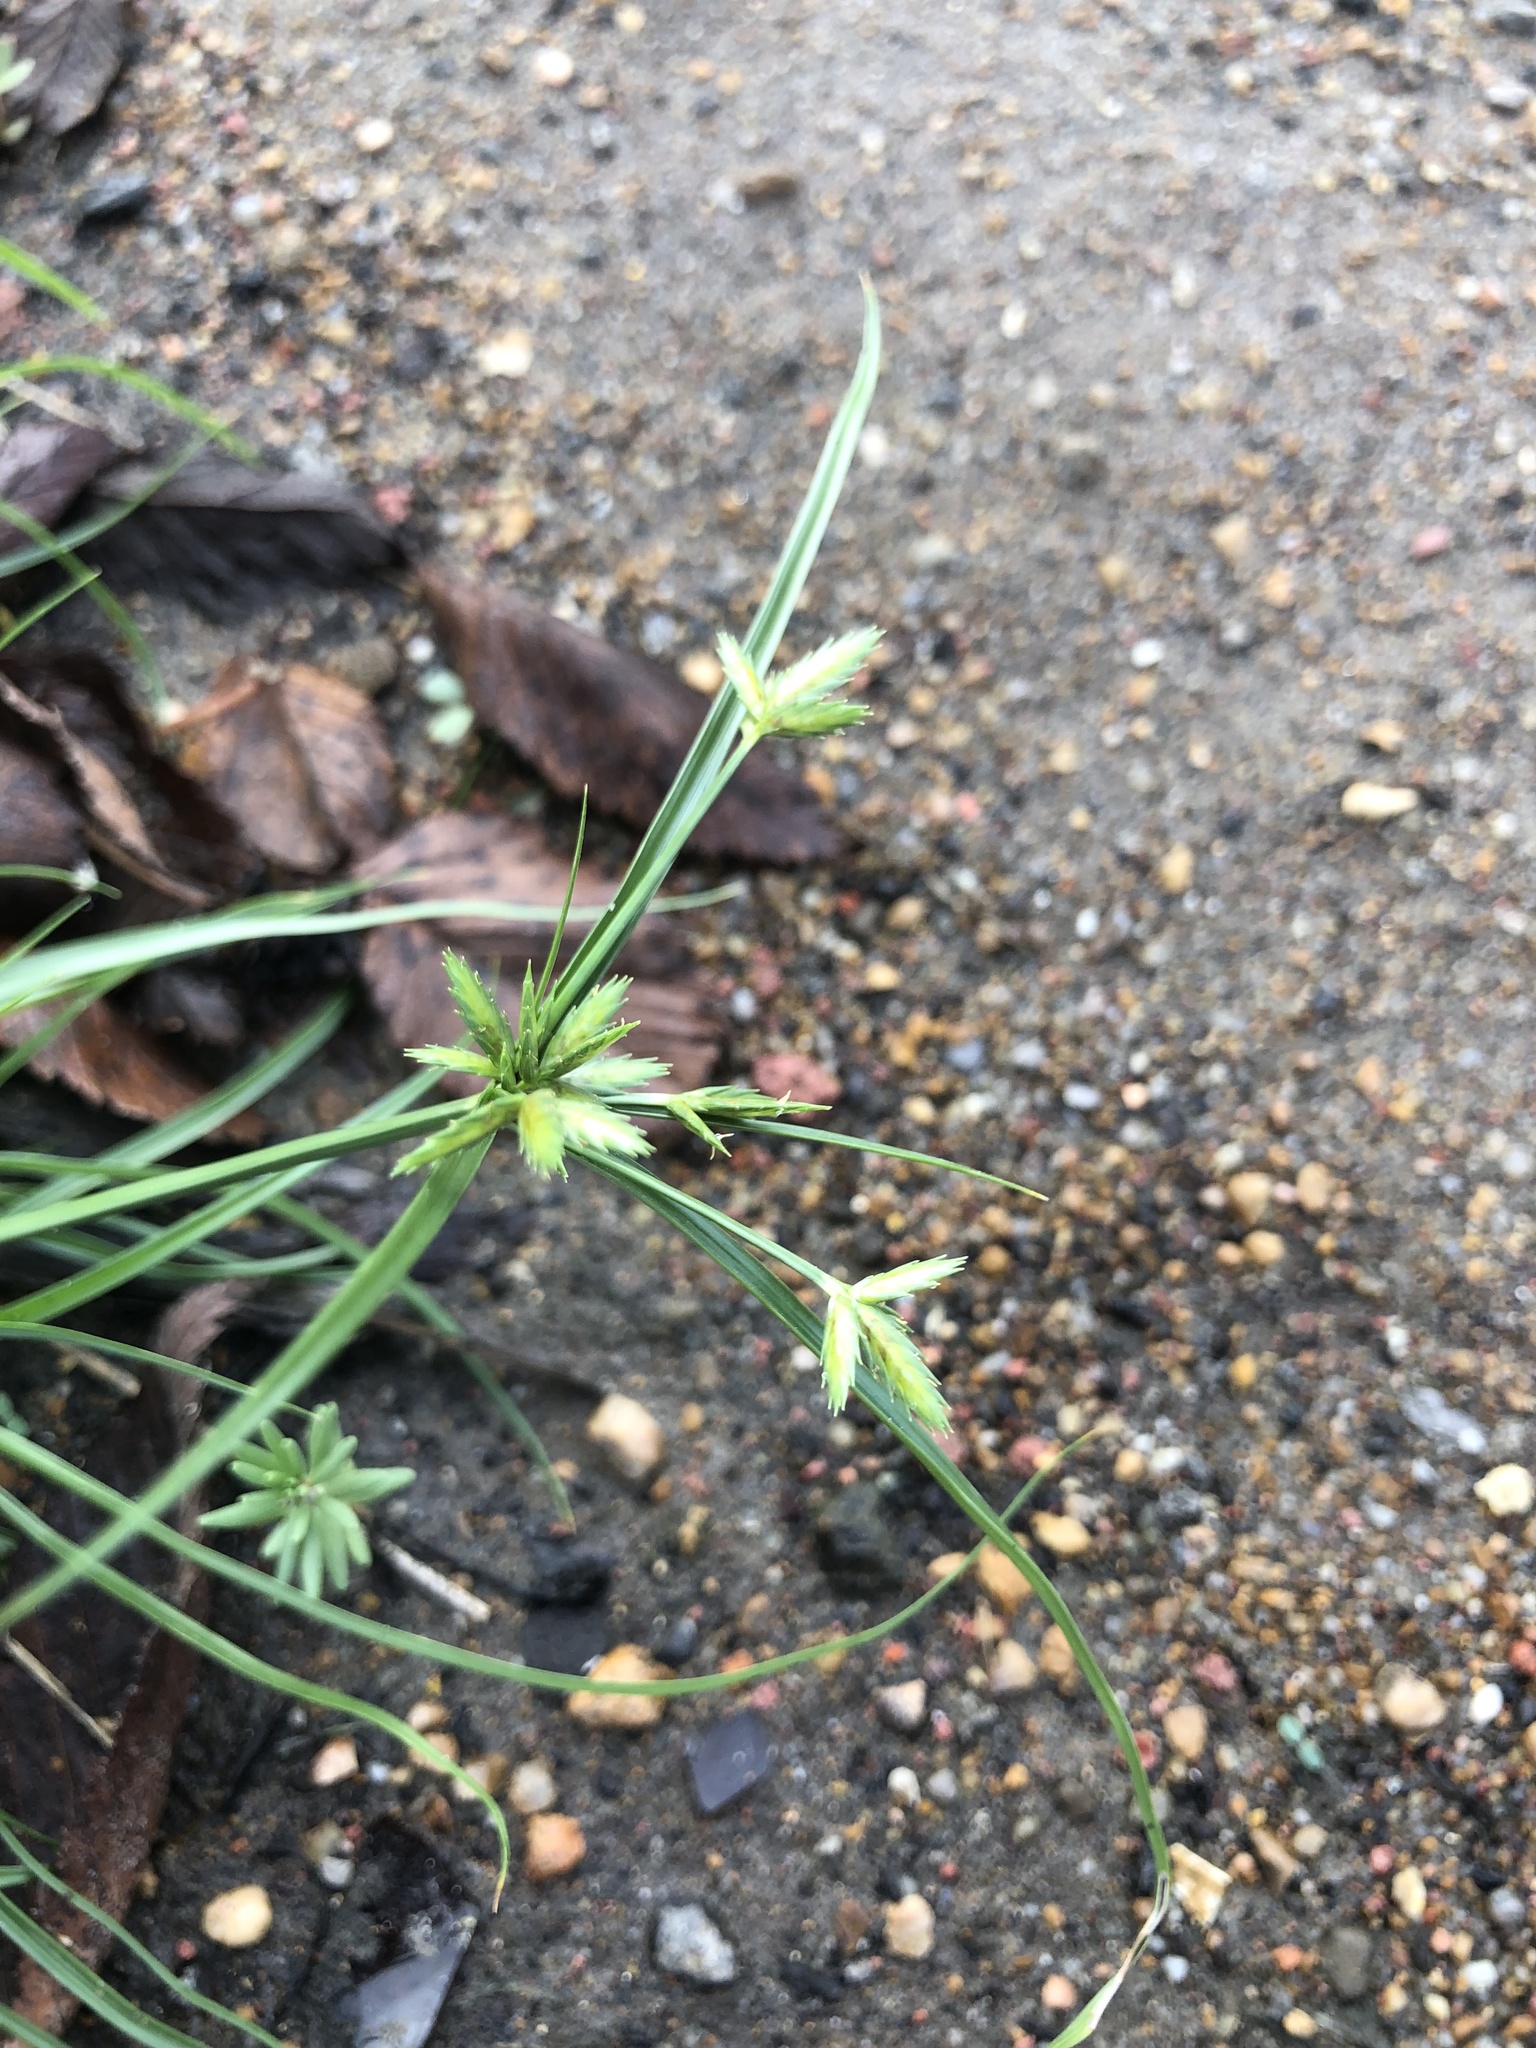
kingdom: Plantae
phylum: Tracheophyta
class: Liliopsida
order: Poales
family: Cyperaceae
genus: Cyperus
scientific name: Cyperus compressus
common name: Poorland flatsedge
